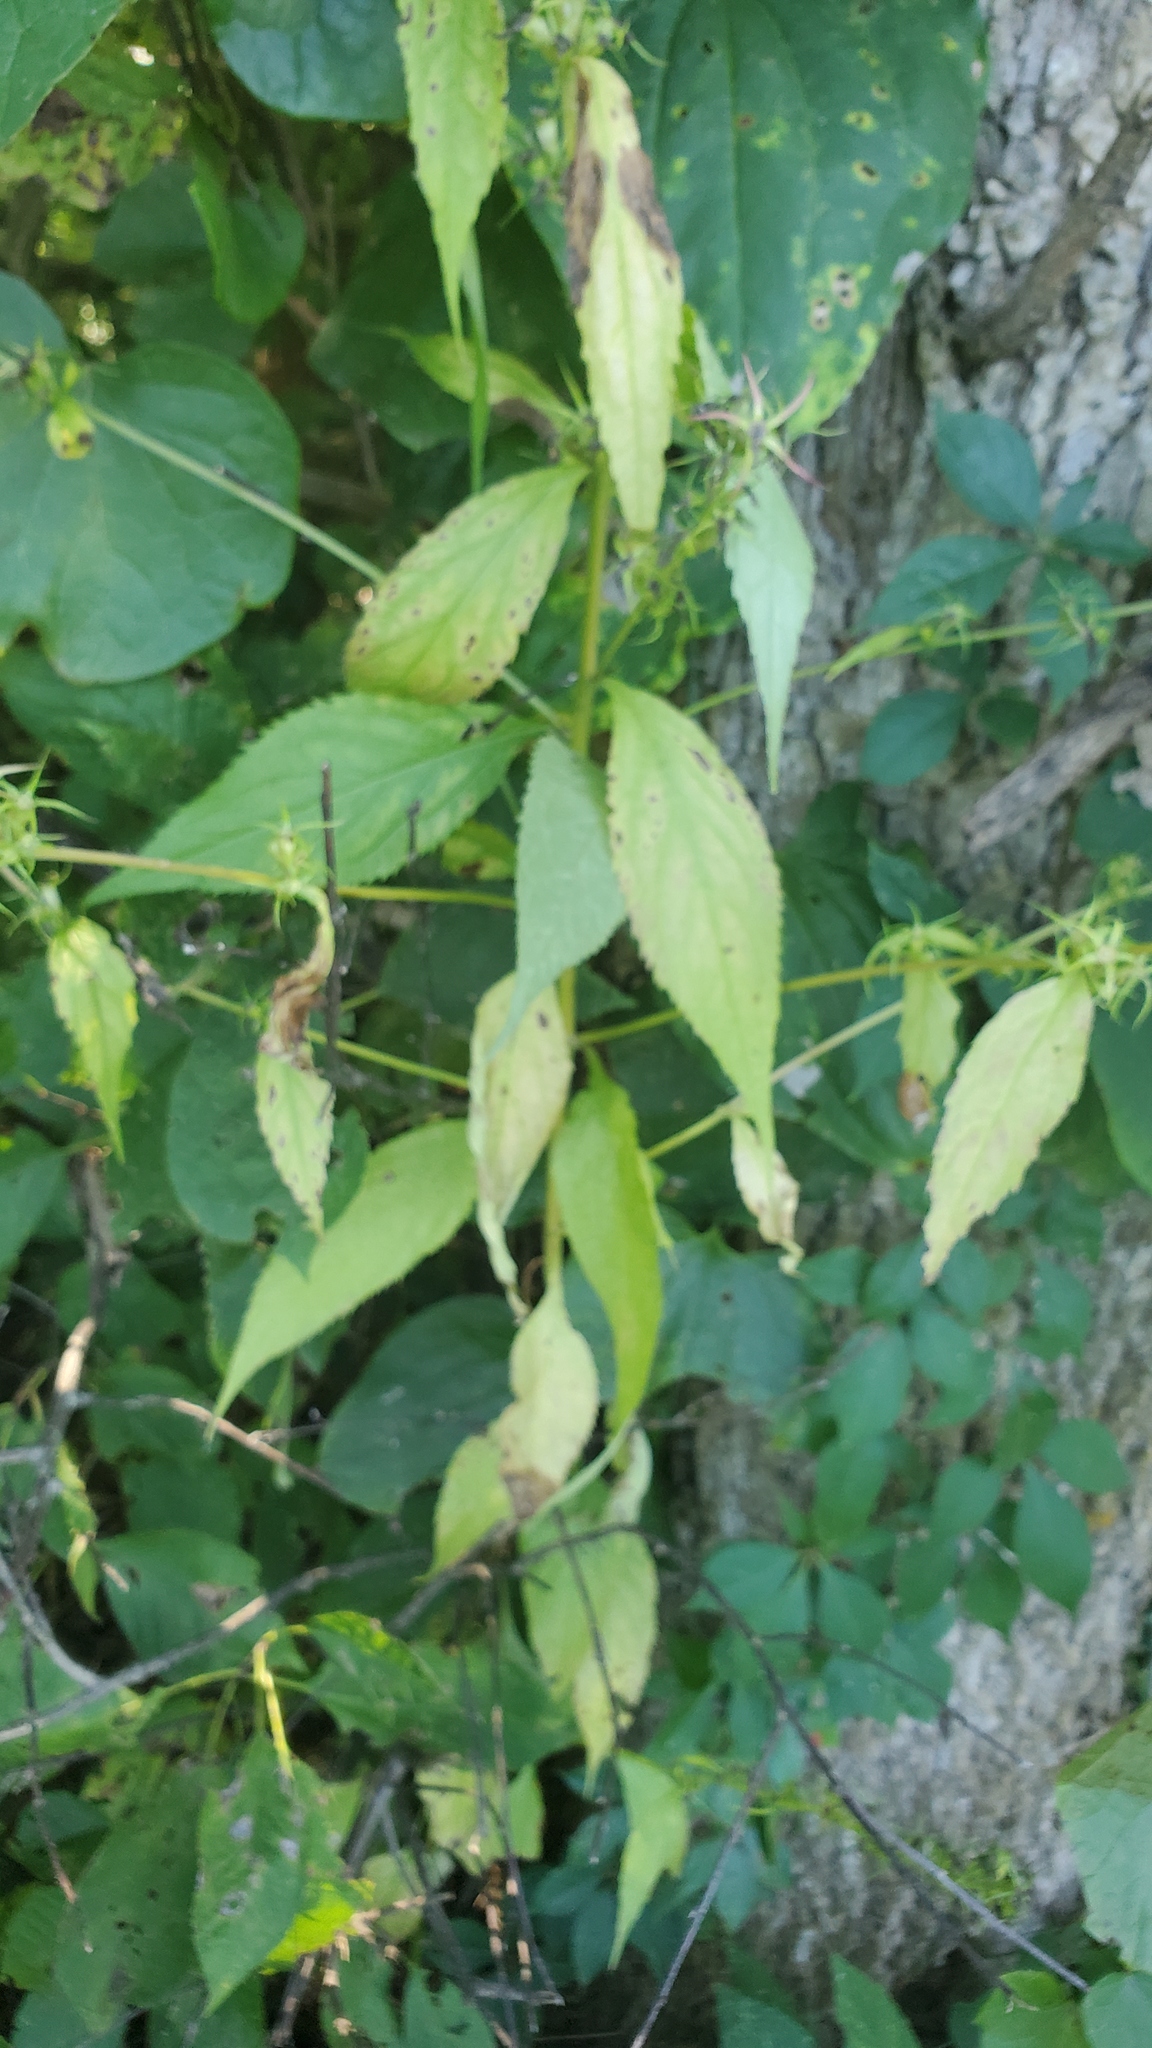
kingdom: Plantae
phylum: Tracheophyta
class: Magnoliopsida
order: Asterales
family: Campanulaceae
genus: Campanulastrum
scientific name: Campanulastrum americanum
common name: American bellflower
